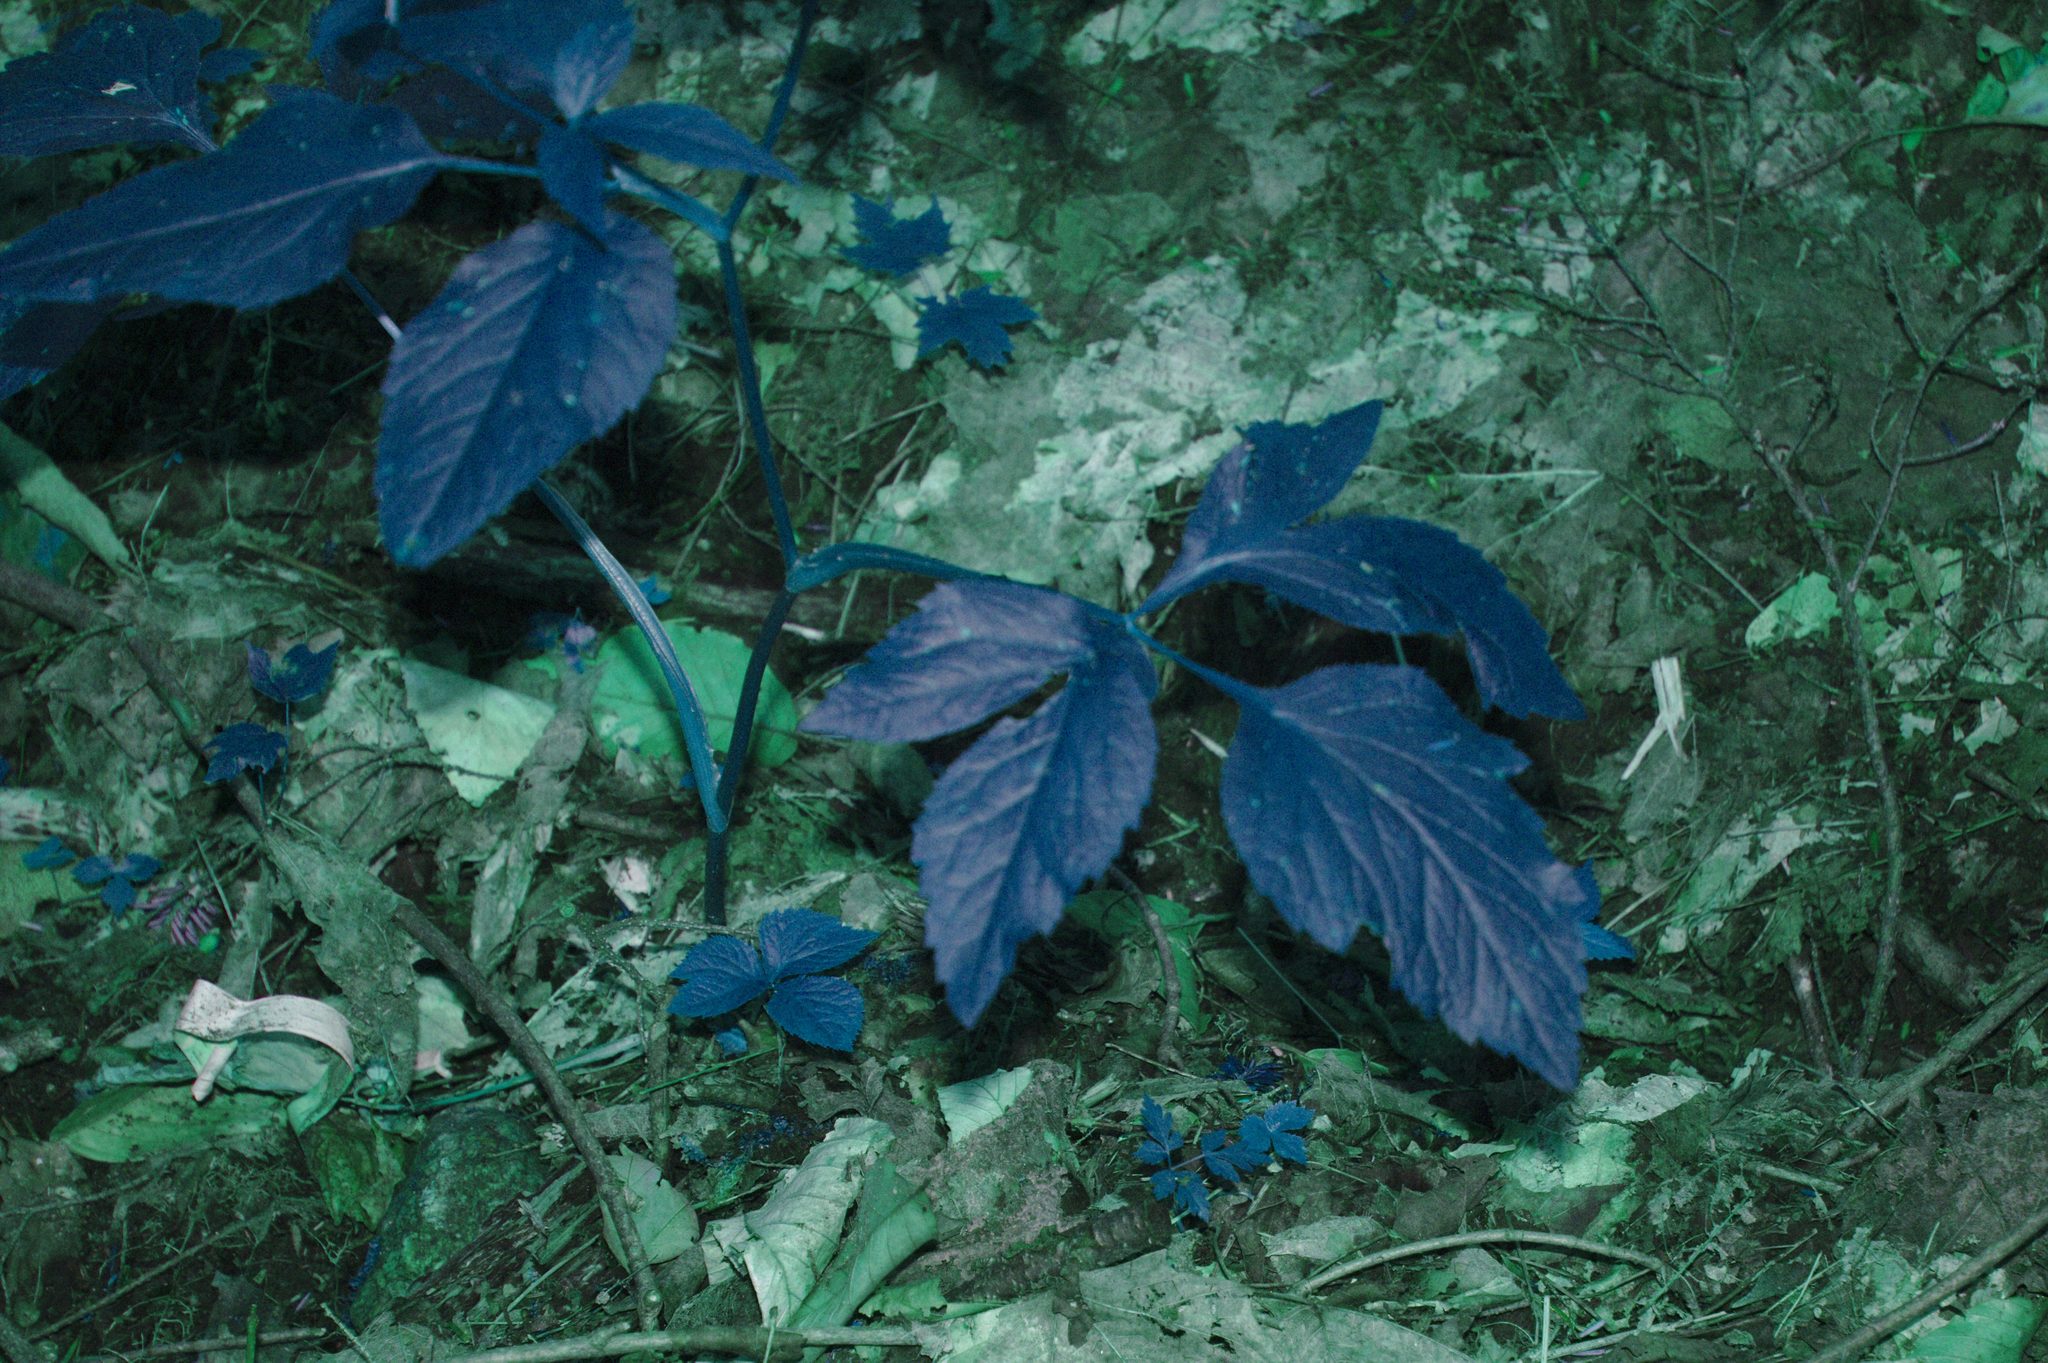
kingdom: Plantae
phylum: Tracheophyta
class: Magnoliopsida
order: Apiales
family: Apiaceae
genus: Cryptotaenia
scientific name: Cryptotaenia canadensis
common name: Honewort
